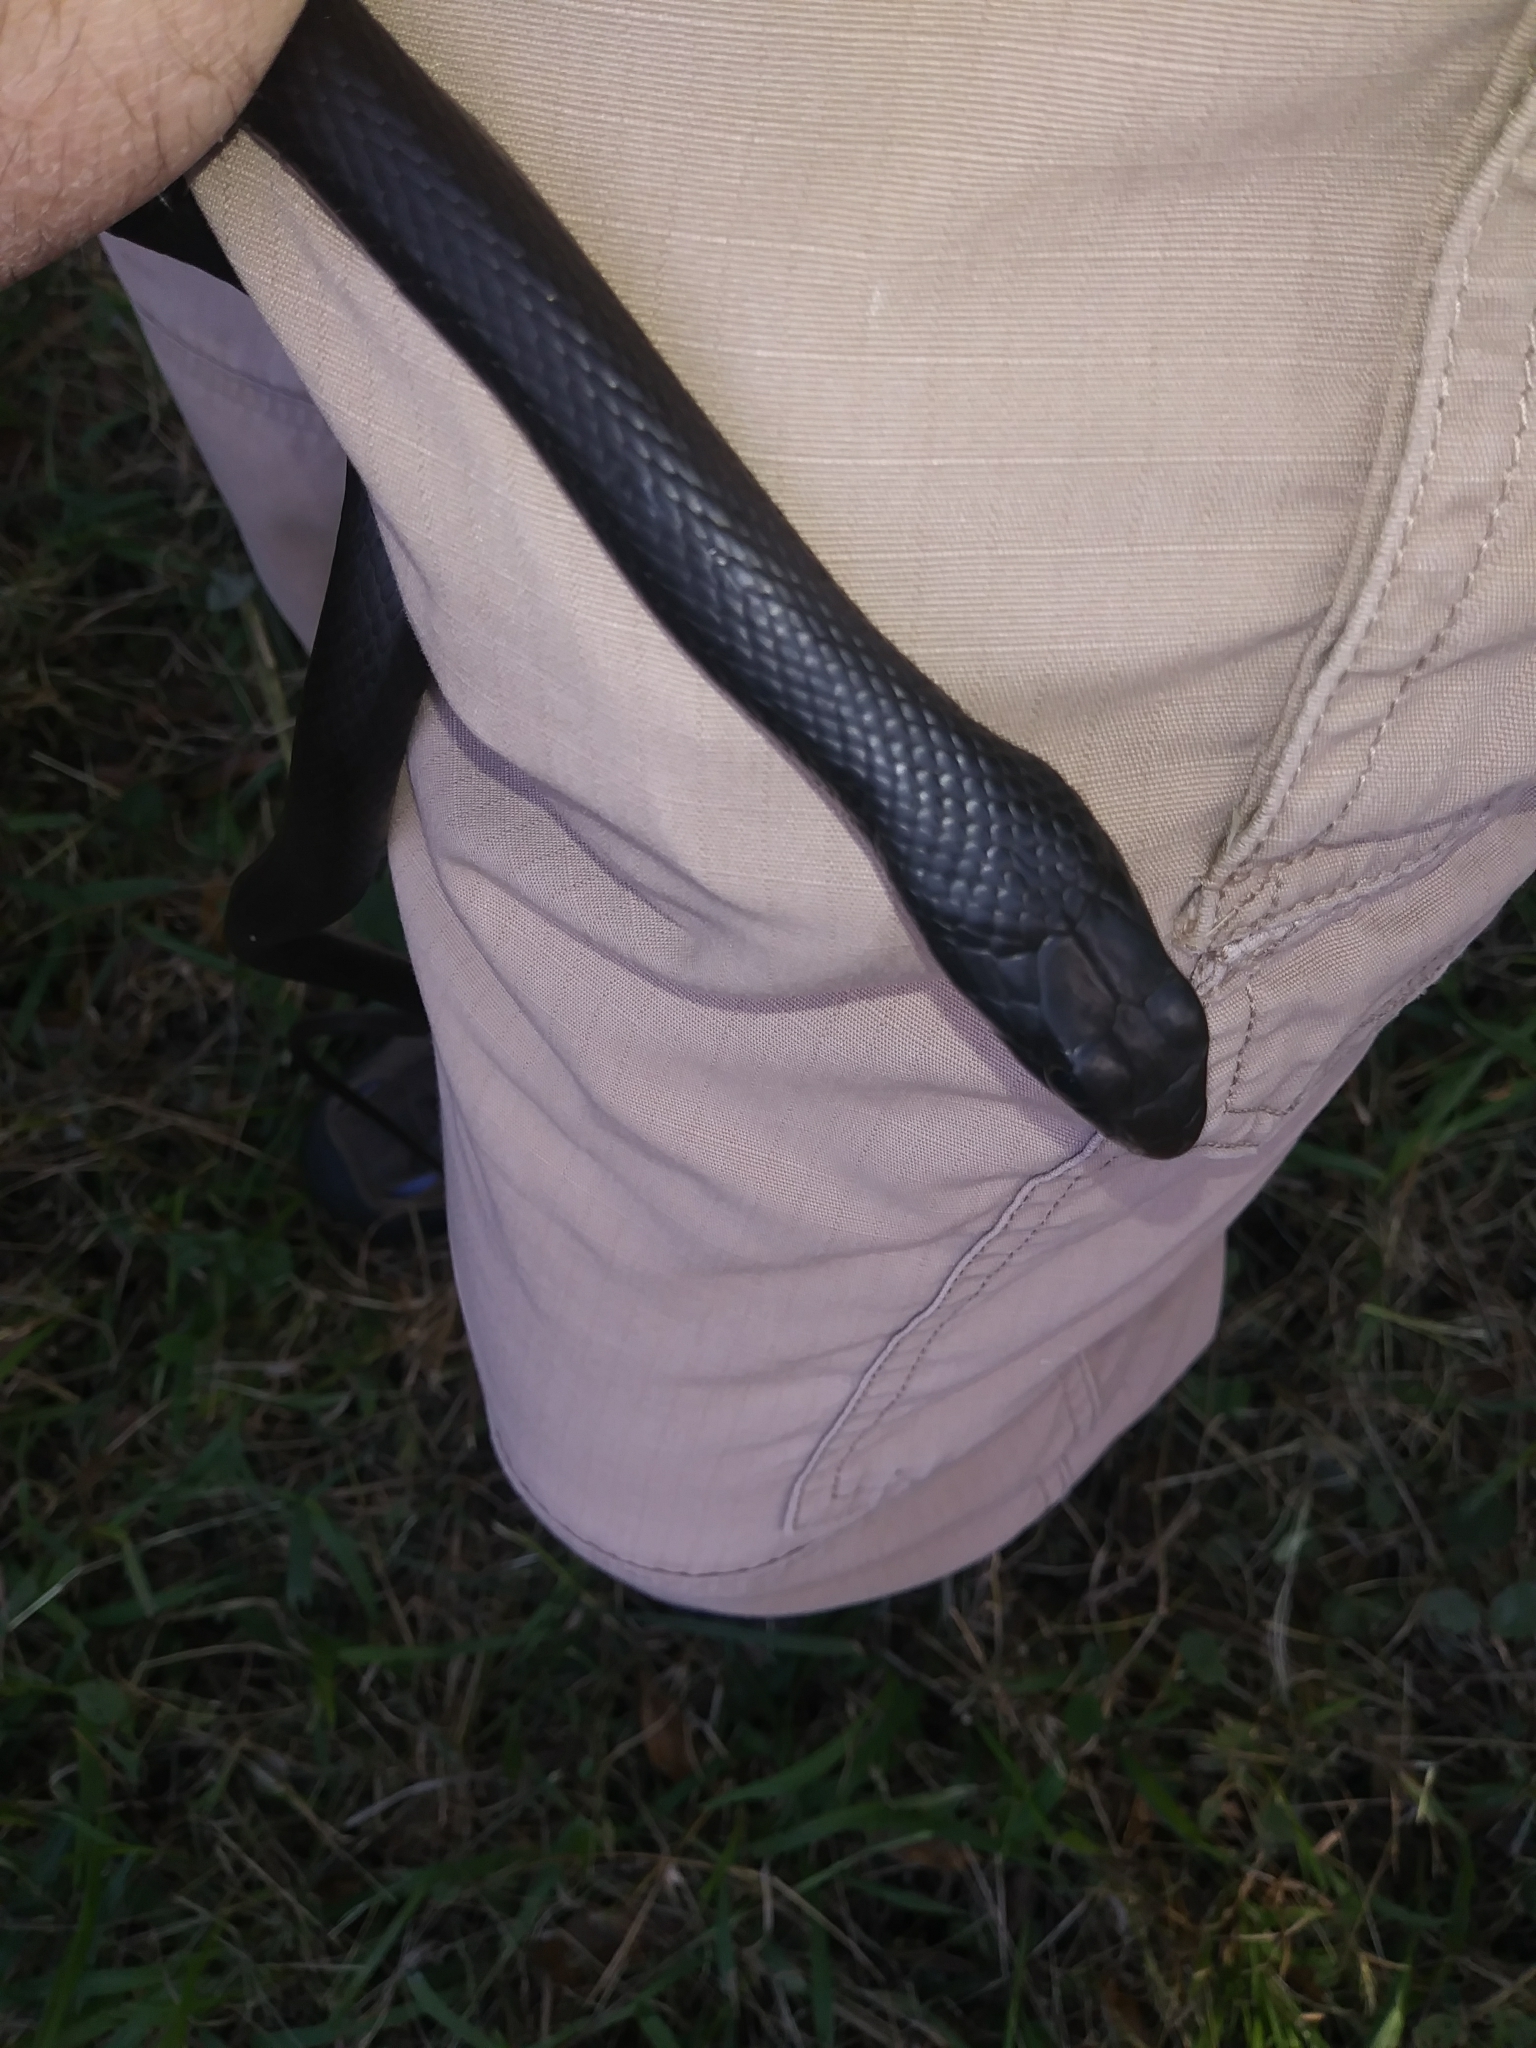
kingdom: Animalia
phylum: Chordata
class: Squamata
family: Colubridae
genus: Coluber
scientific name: Coluber constrictor
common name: Eastern racer
